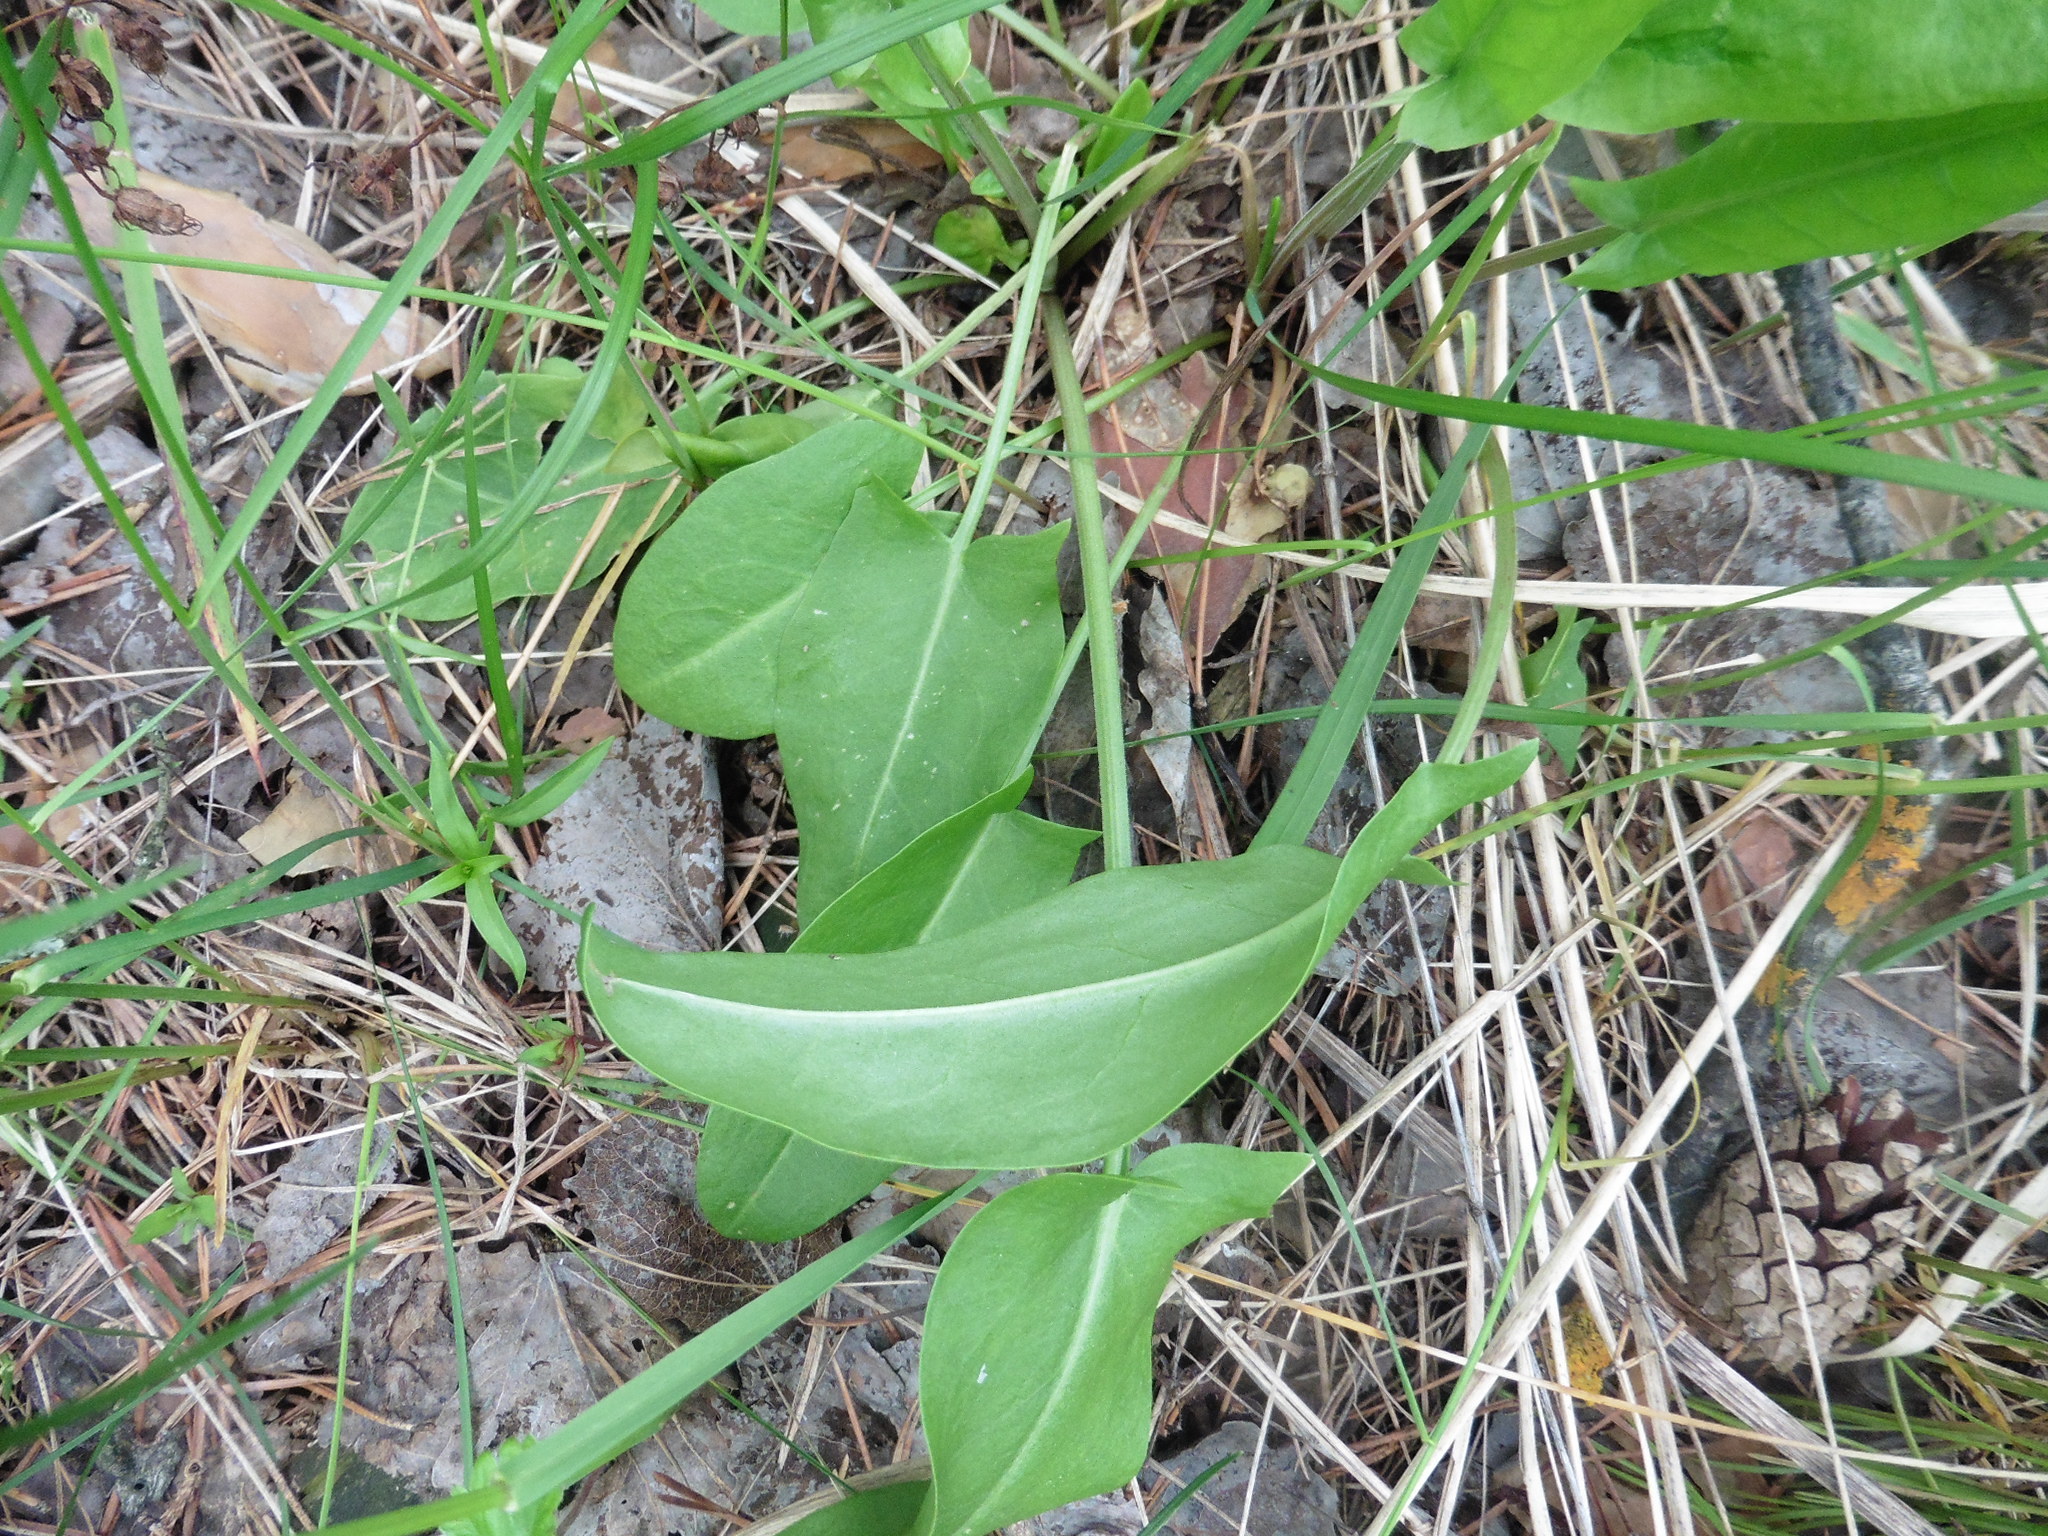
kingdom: Plantae
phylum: Tracheophyta
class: Magnoliopsida
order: Caryophyllales
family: Polygonaceae
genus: Rumex
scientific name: Rumex acetosa
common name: Garden sorrel
